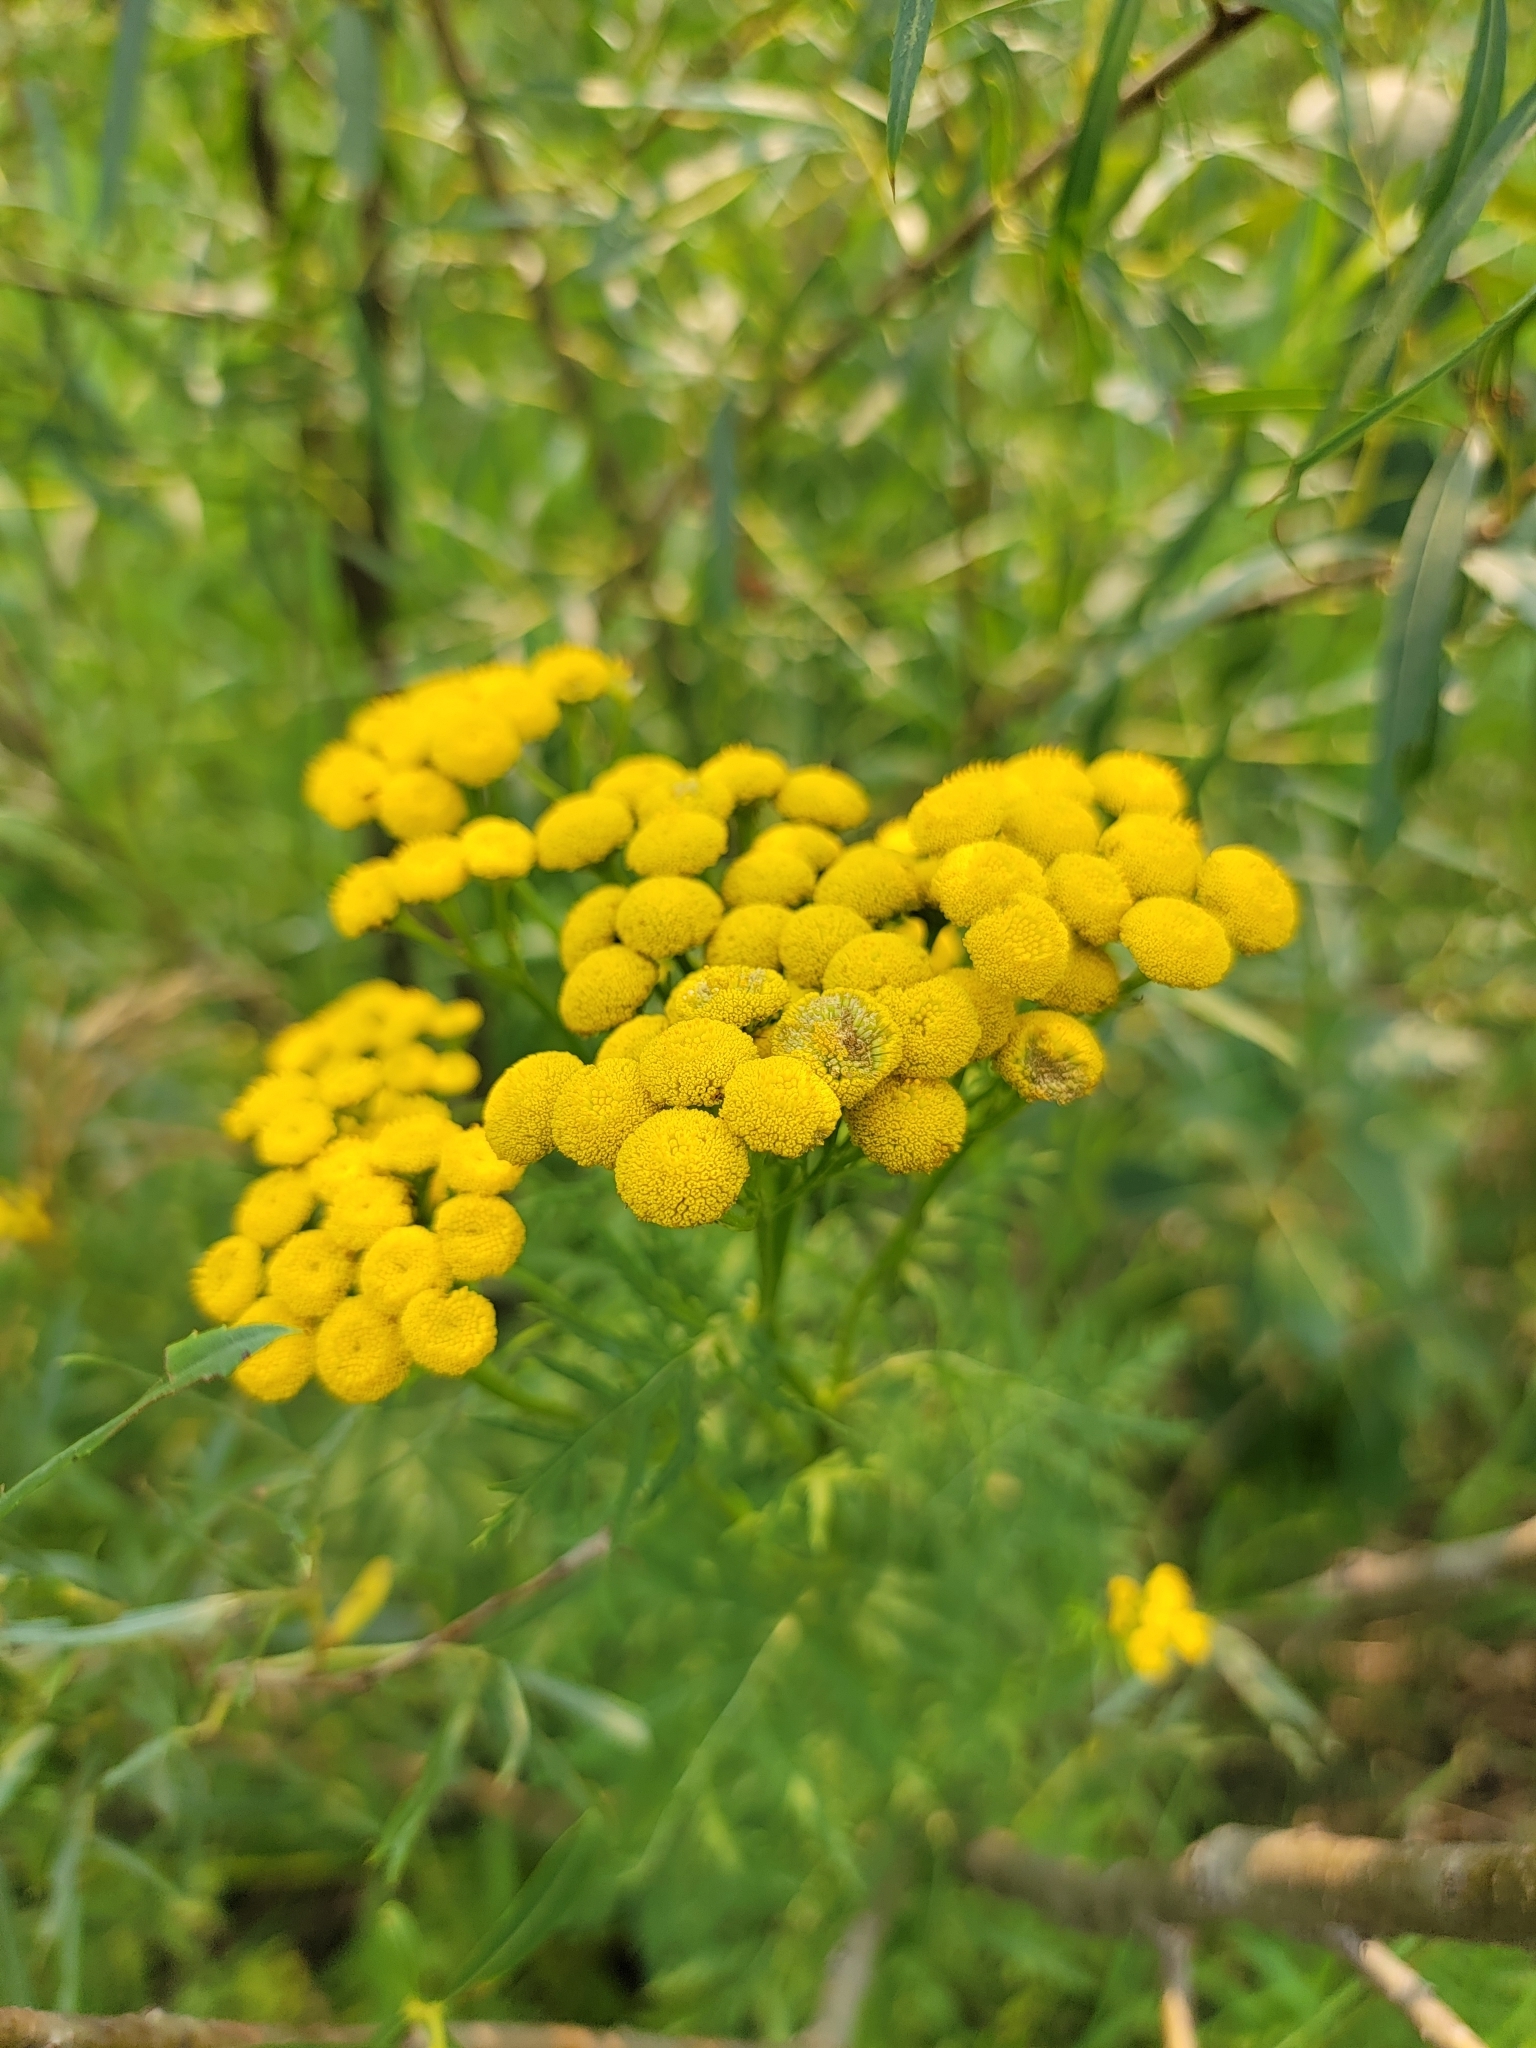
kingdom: Plantae
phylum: Tracheophyta
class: Magnoliopsida
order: Asterales
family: Asteraceae
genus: Tanacetum
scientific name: Tanacetum vulgare
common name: Common tansy
